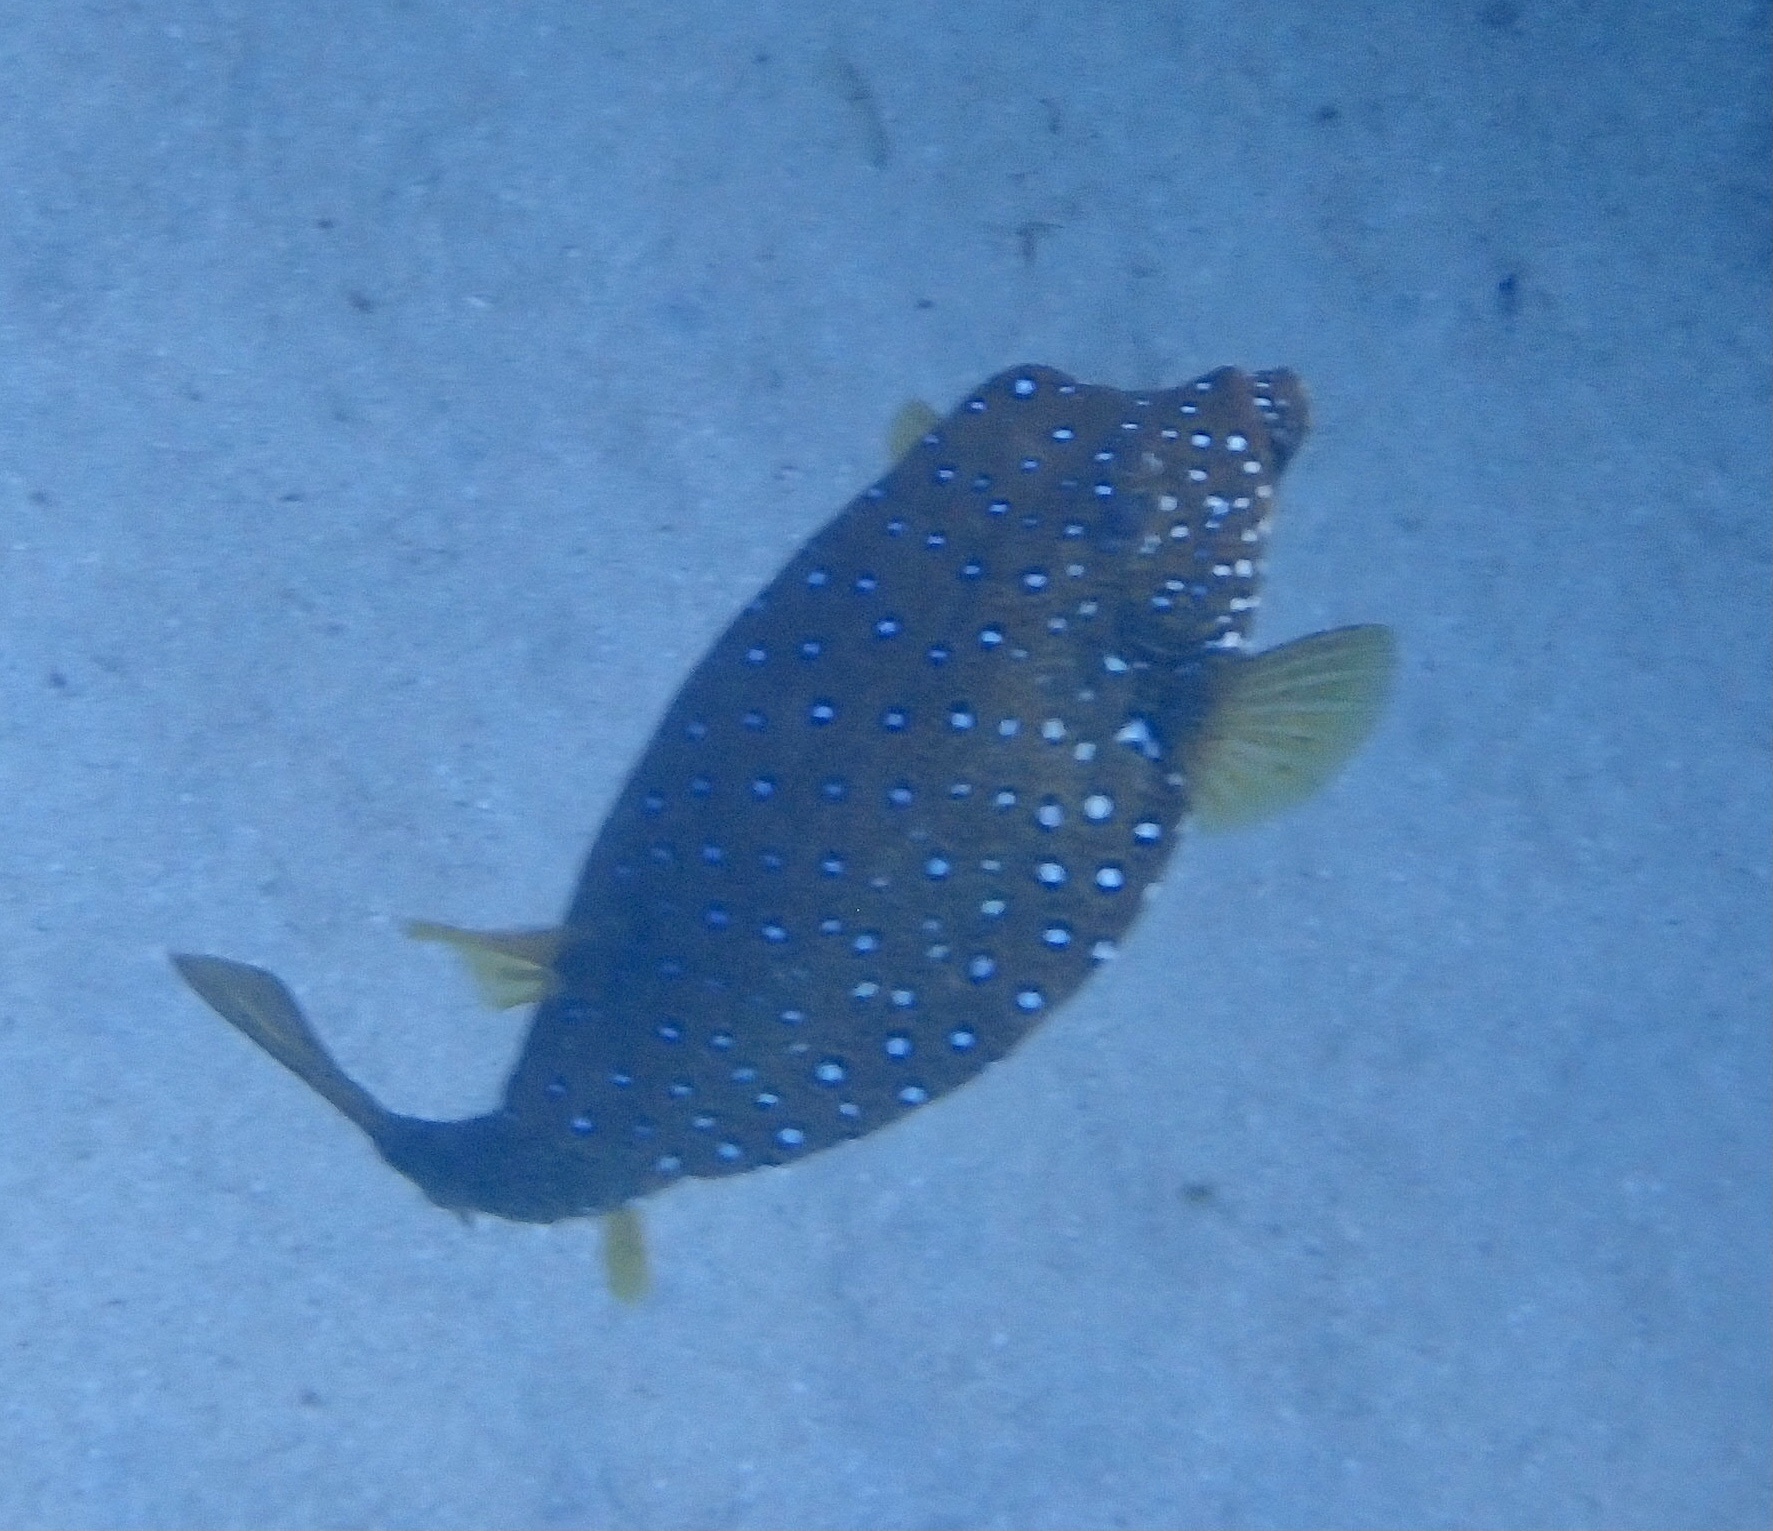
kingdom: Animalia
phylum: Chordata
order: Tetraodontiformes
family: Ostraciidae
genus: Ostracion
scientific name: Ostracion cubicus
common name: Cube trunkfish
